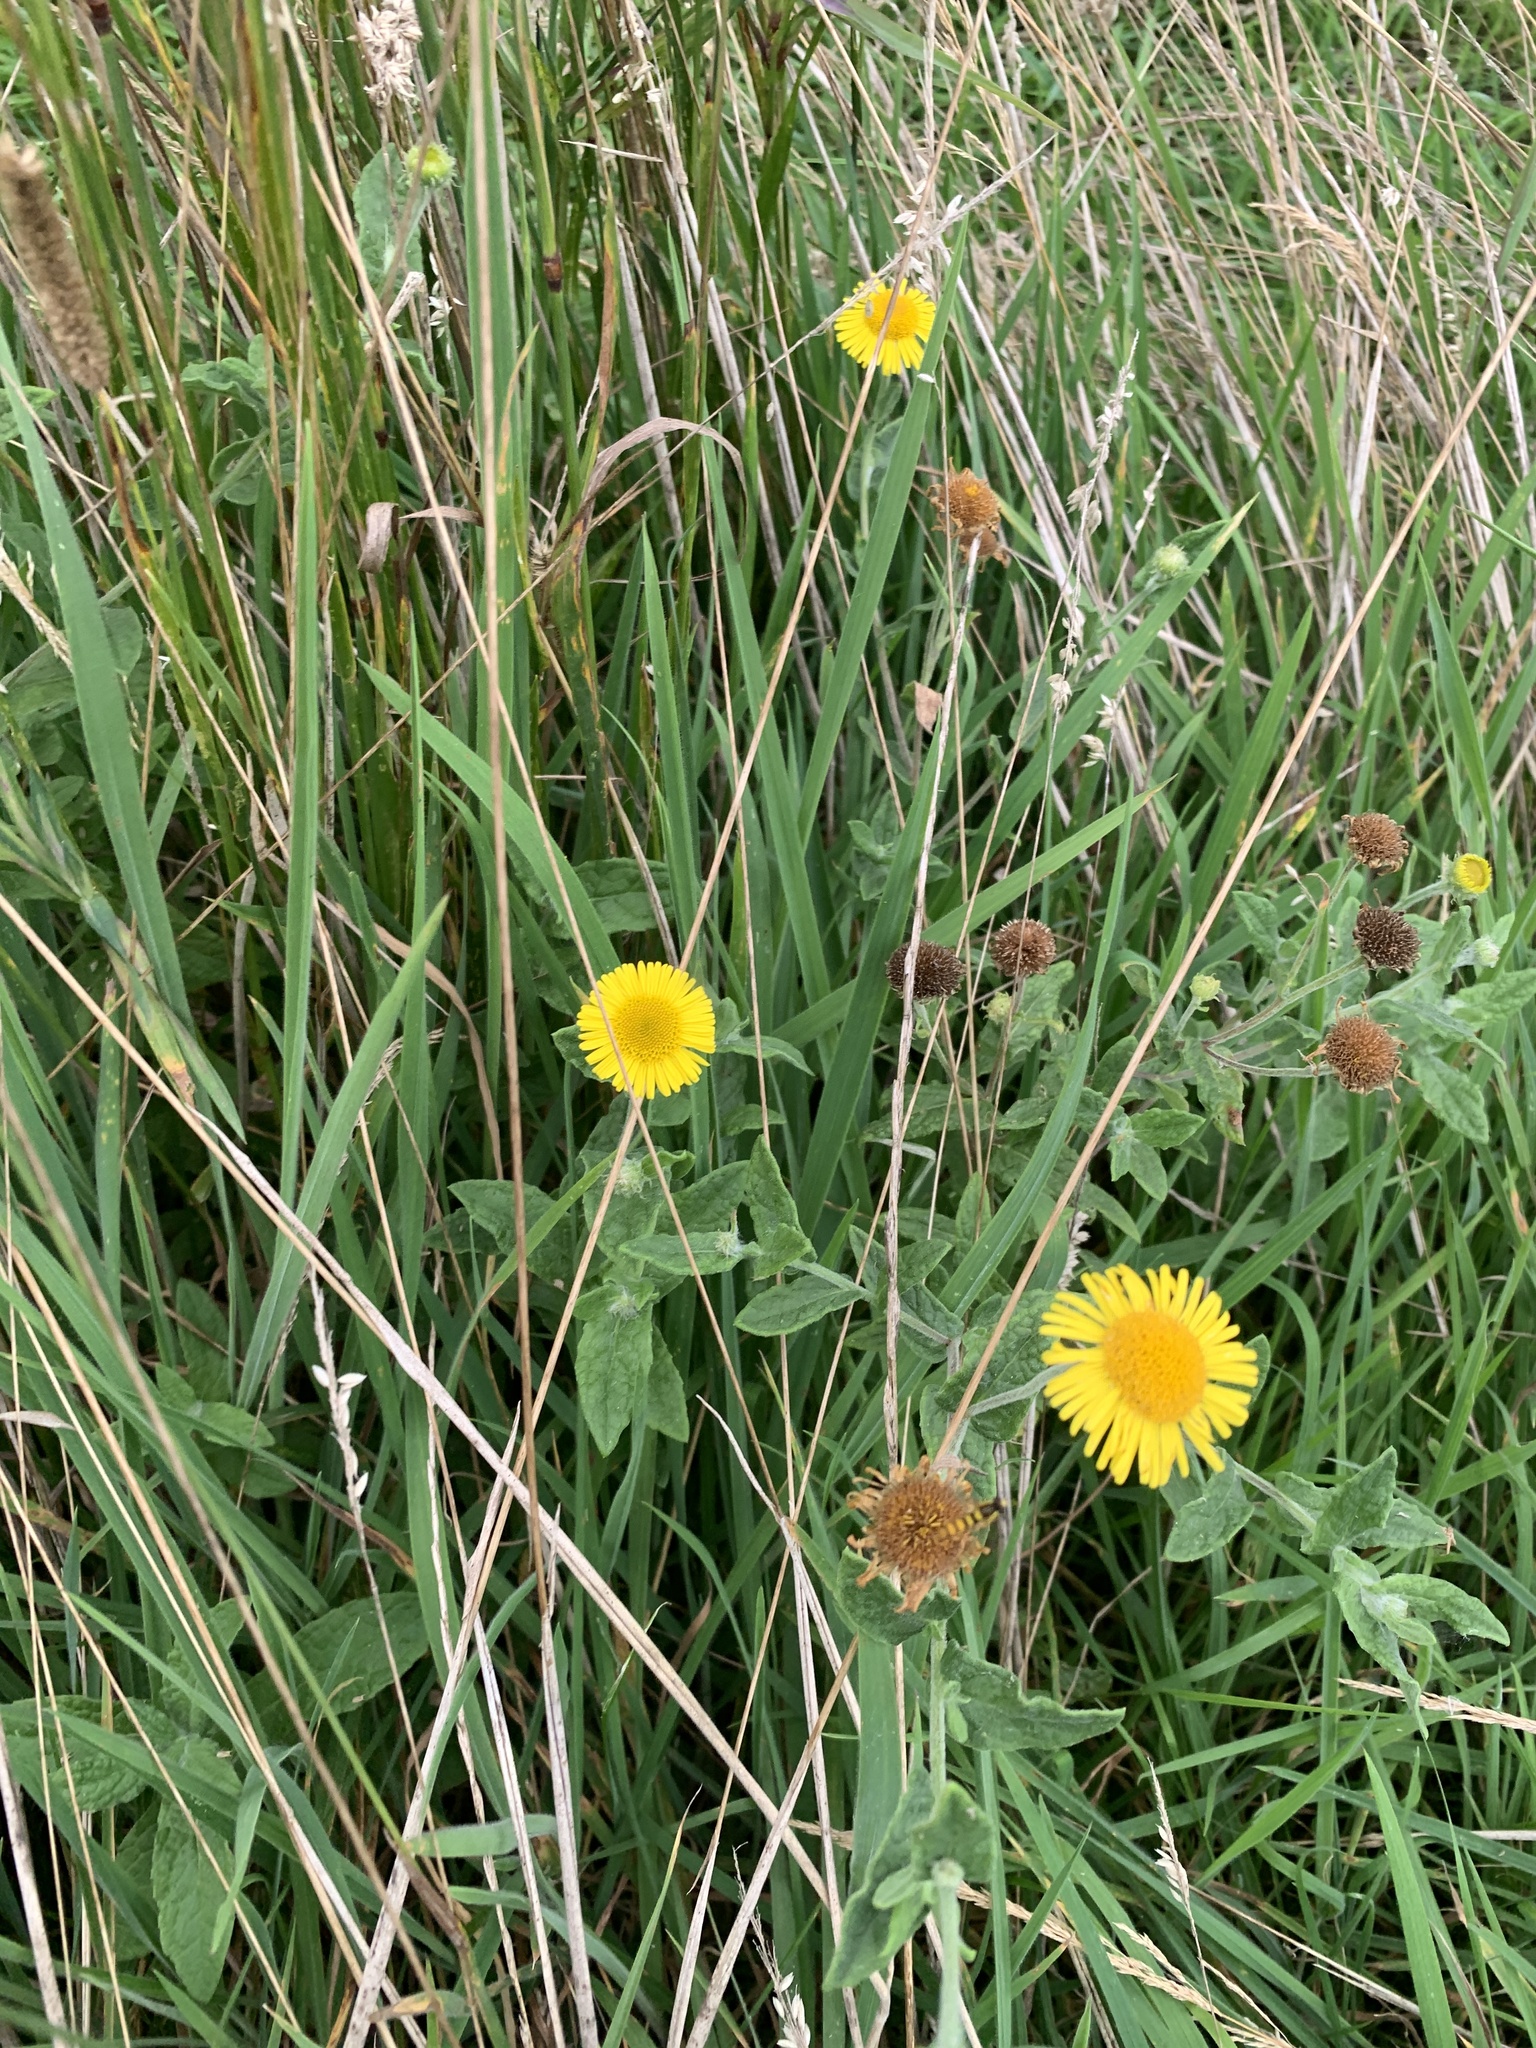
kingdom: Plantae
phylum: Tracheophyta
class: Magnoliopsida
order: Asterales
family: Asteraceae
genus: Pulicaria
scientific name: Pulicaria dysenterica
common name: Common fleabane
